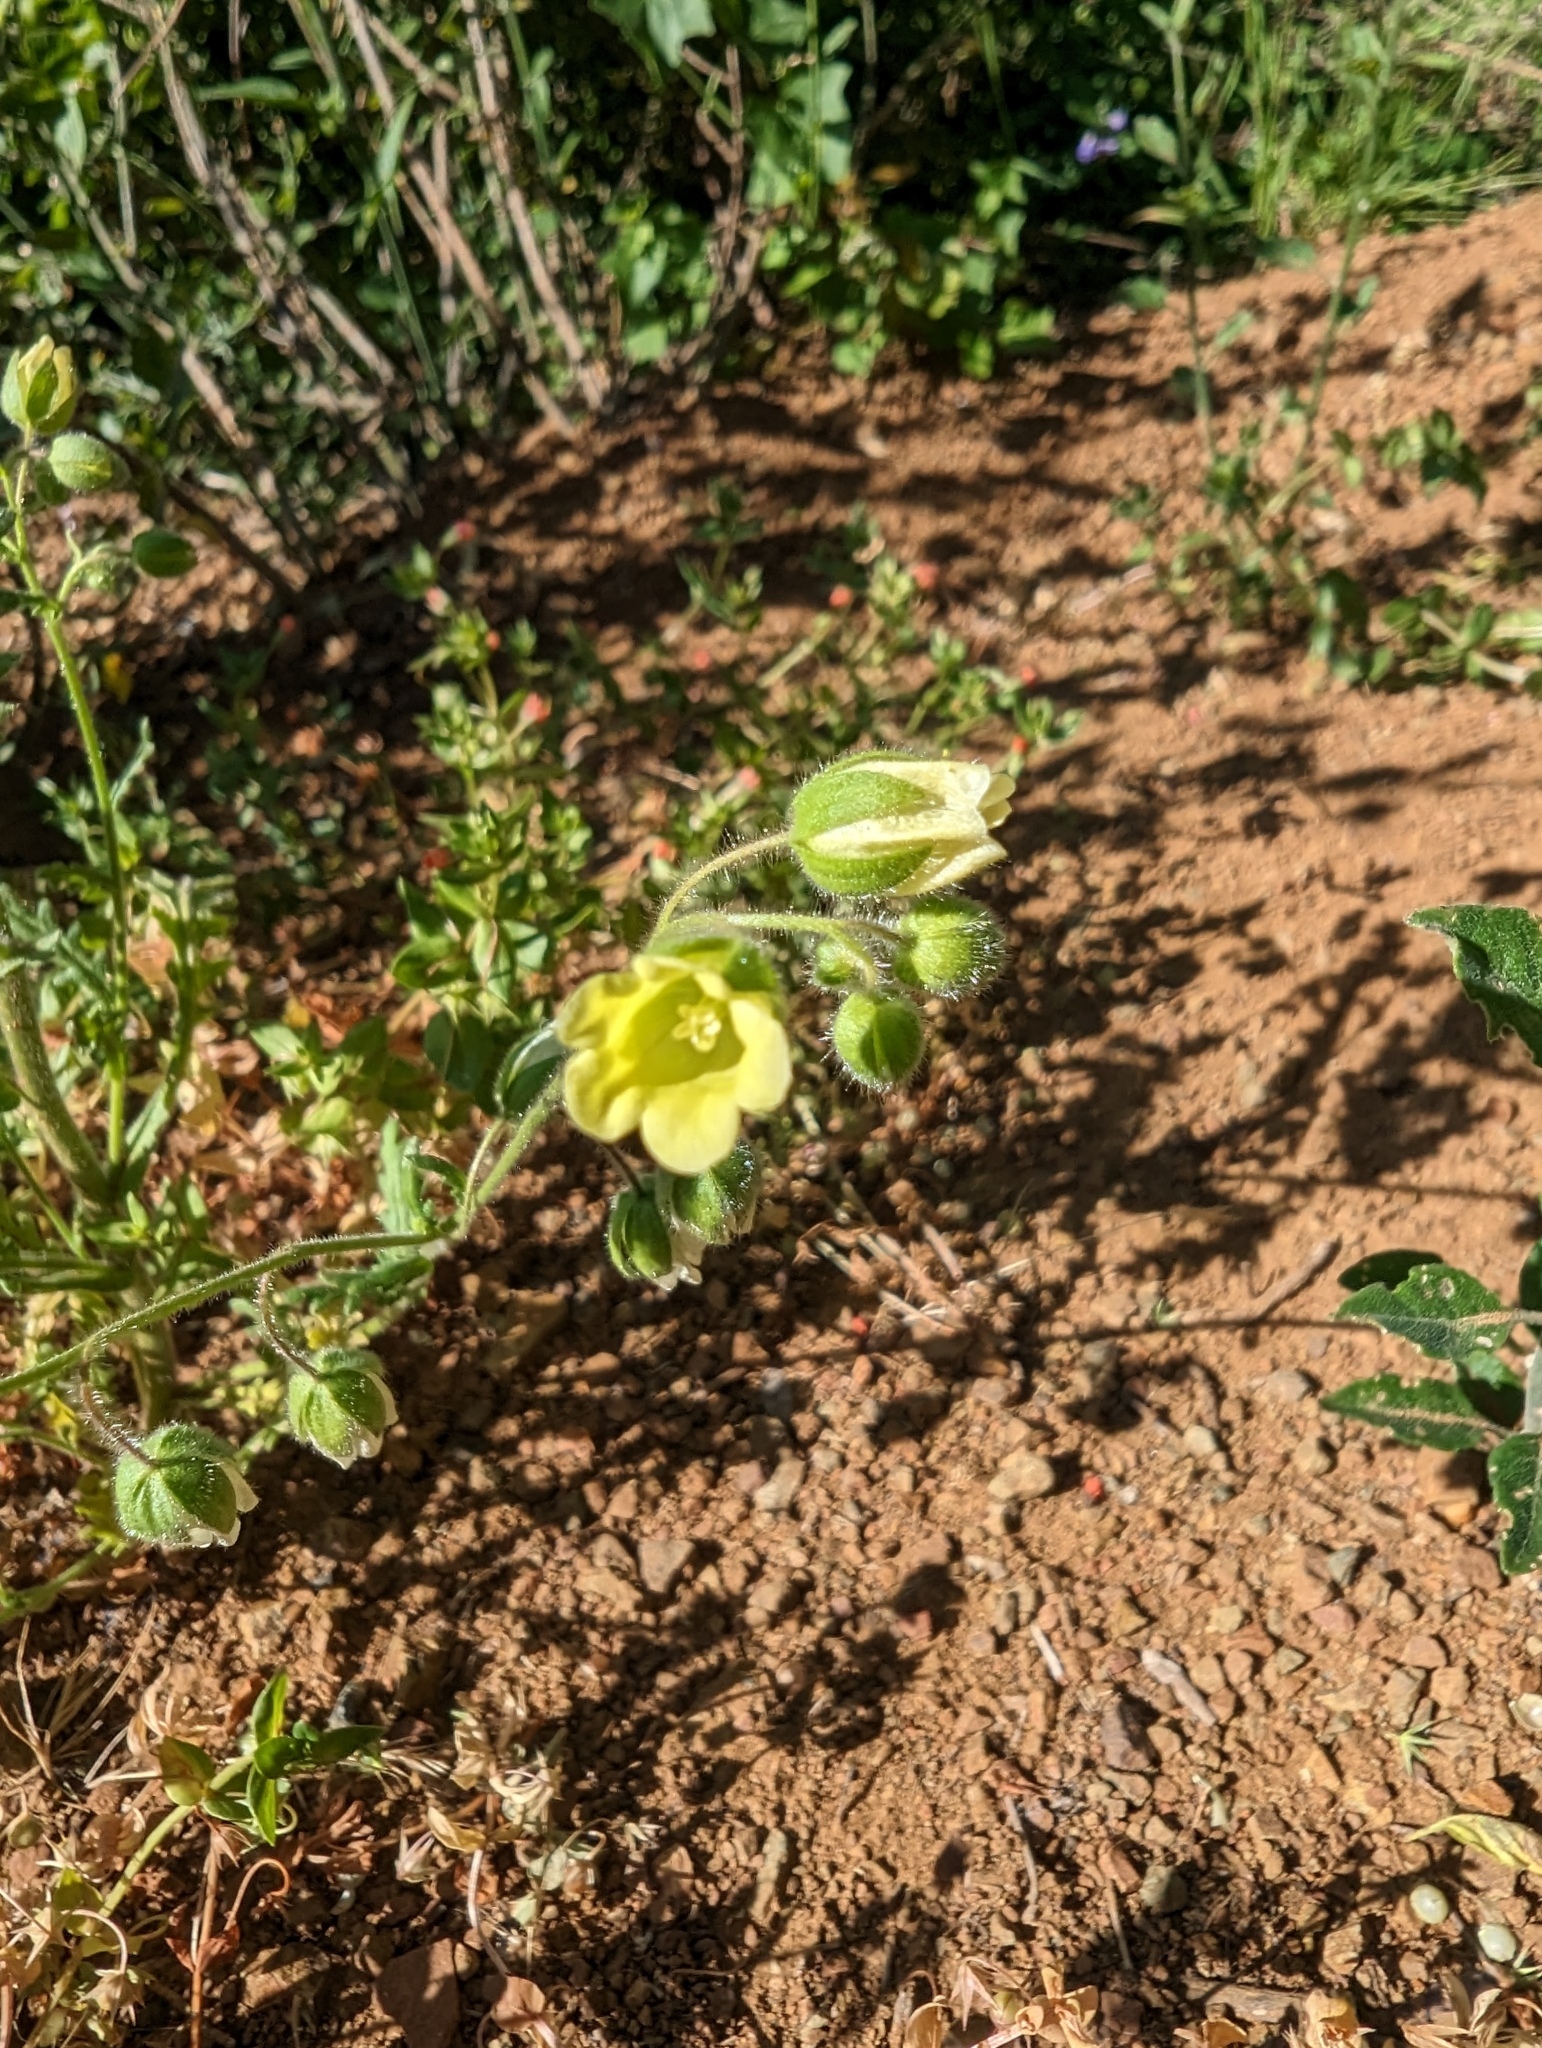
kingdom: Plantae
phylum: Tracheophyta
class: Magnoliopsida
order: Boraginales
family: Hydrophyllaceae
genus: Emmenanthe
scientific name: Emmenanthe penduliflora
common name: Whispering-bells
